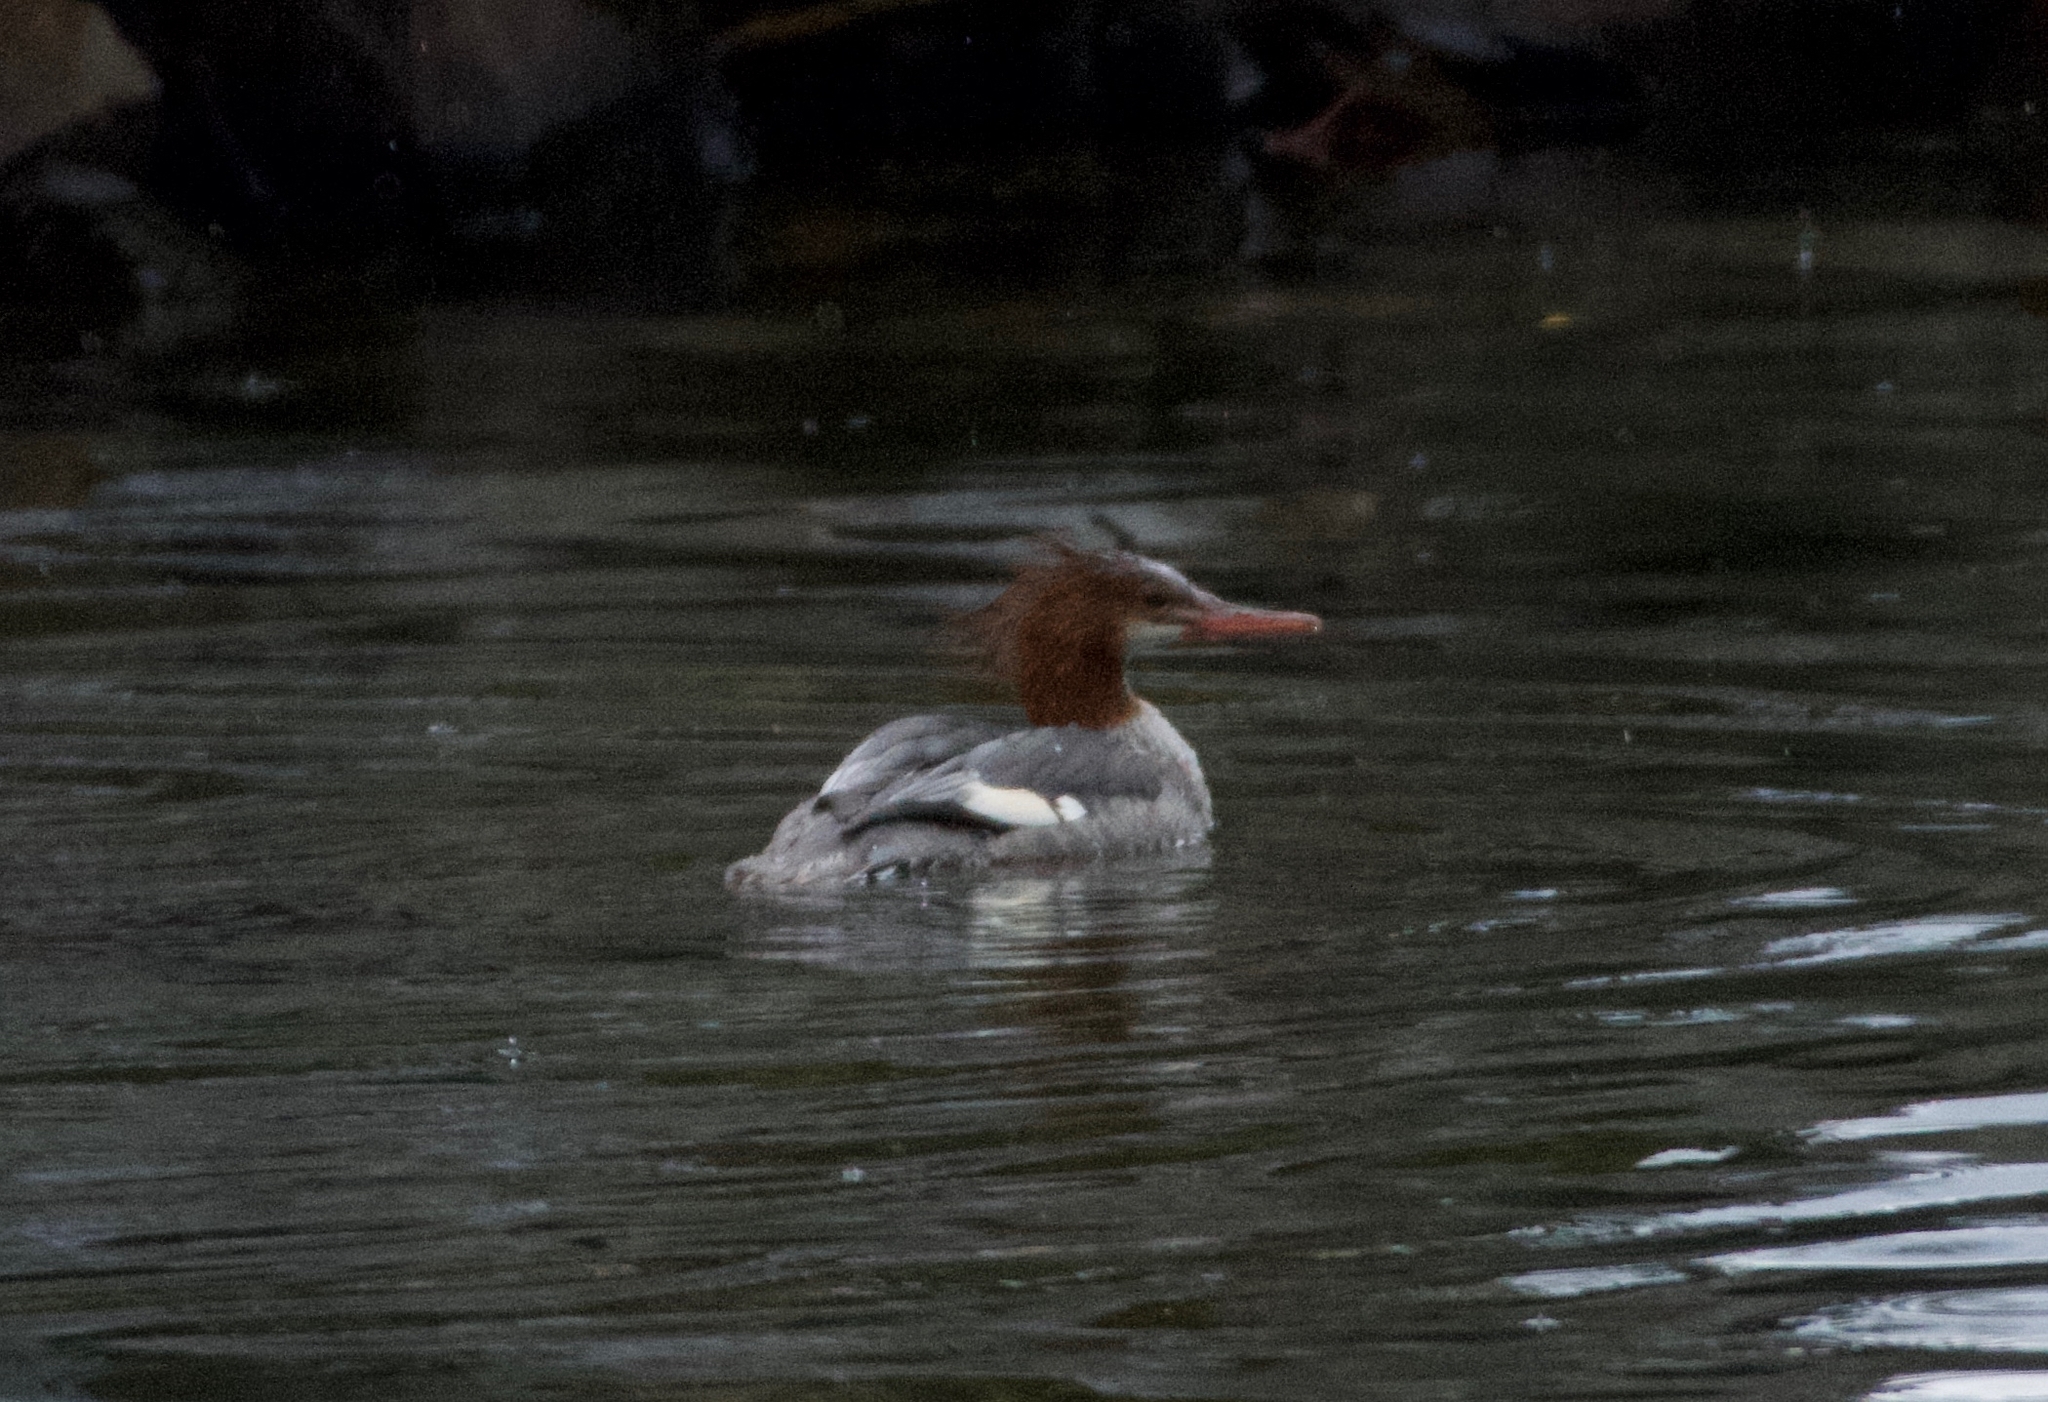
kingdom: Animalia
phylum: Chordata
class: Aves
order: Anseriformes
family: Anatidae
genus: Mergus
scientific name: Mergus merganser
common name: Common merganser
